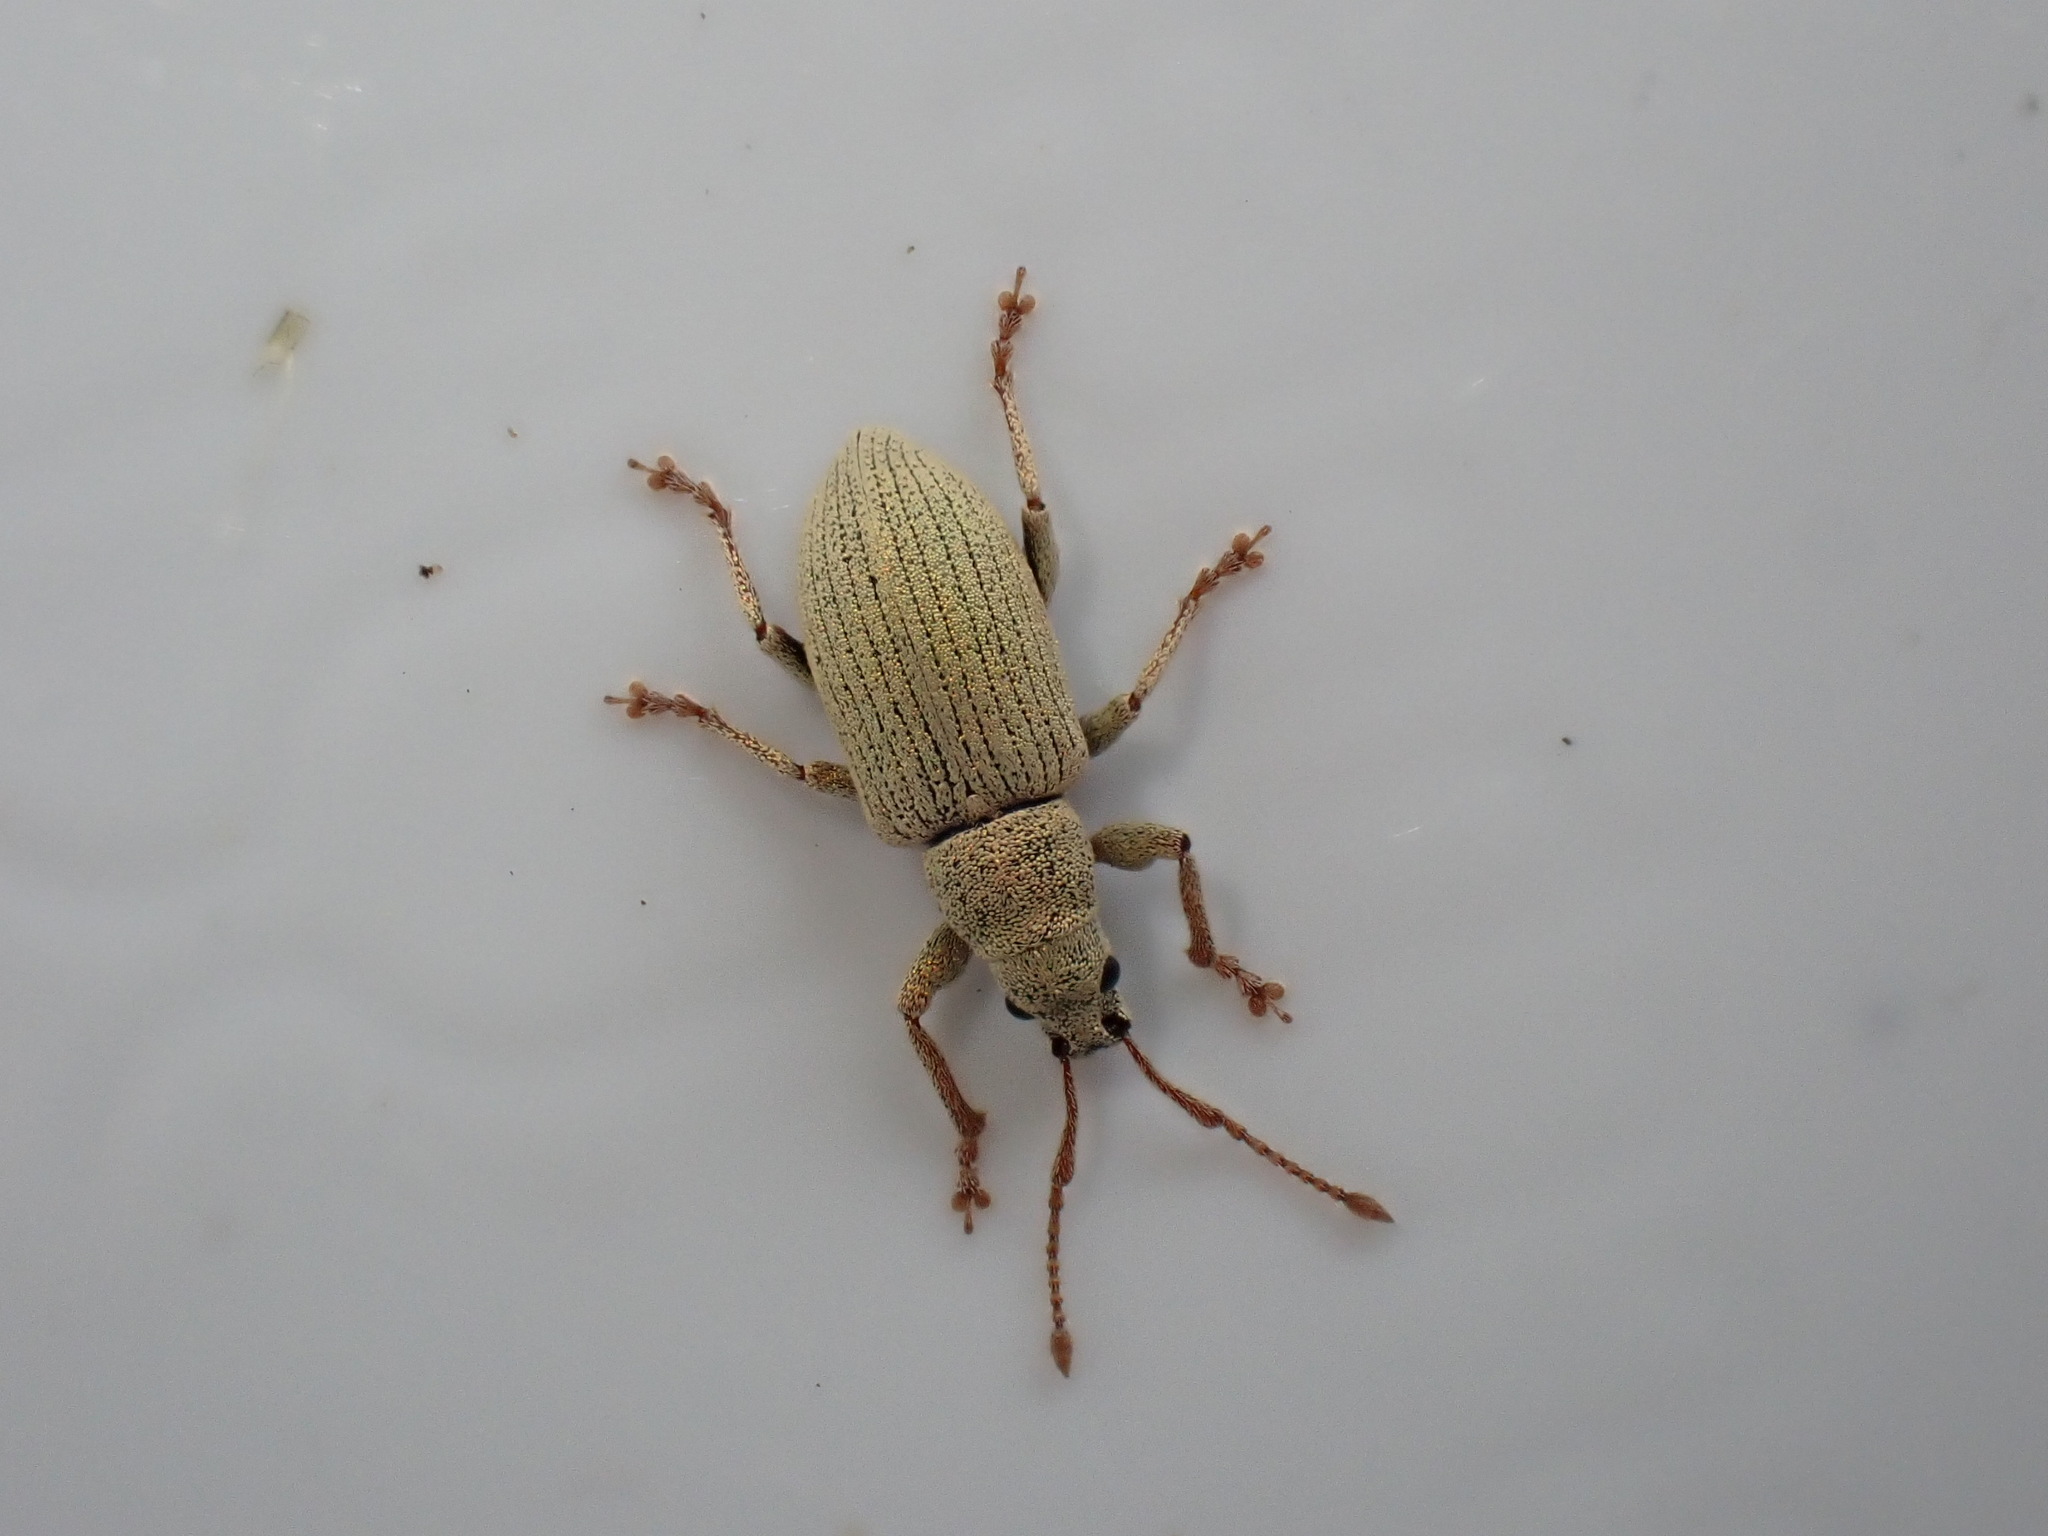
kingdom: Animalia
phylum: Arthropoda
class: Insecta
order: Coleoptera
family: Curculionidae
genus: Phyllobius
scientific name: Phyllobius virideaeris
